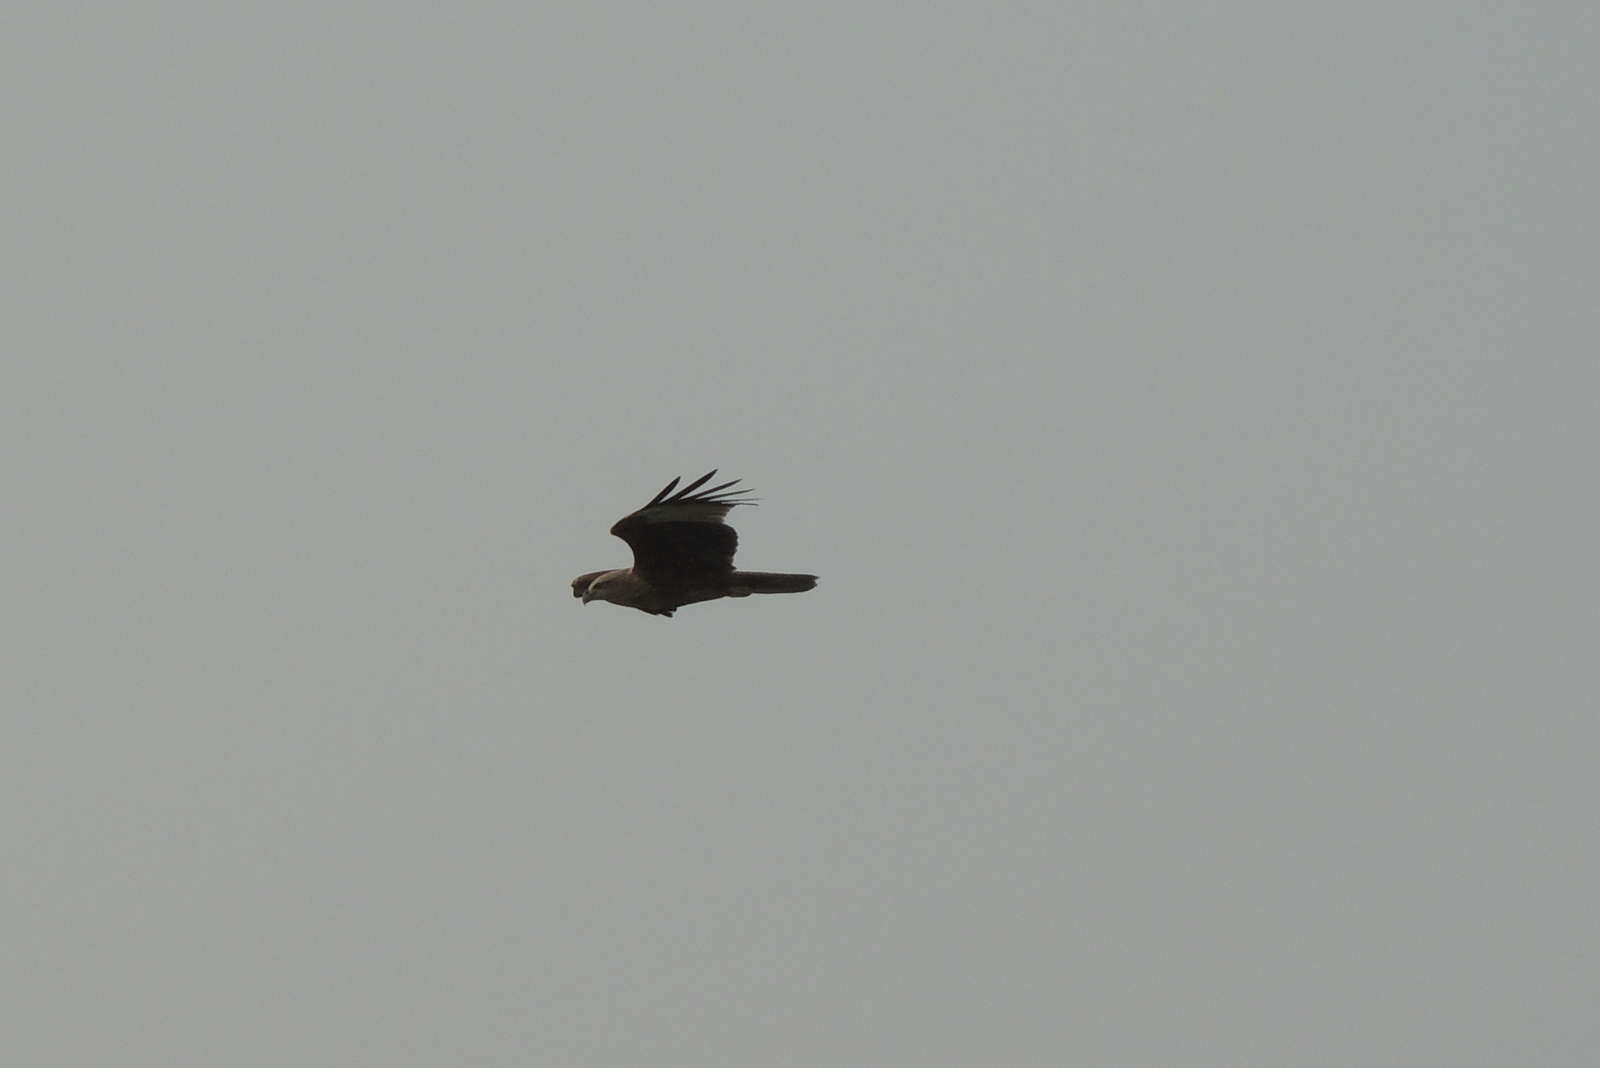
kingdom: Animalia
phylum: Chordata
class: Aves
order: Accipitriformes
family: Accipitridae
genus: Haliastur
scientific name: Haliastur indus
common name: Brahminy kite
